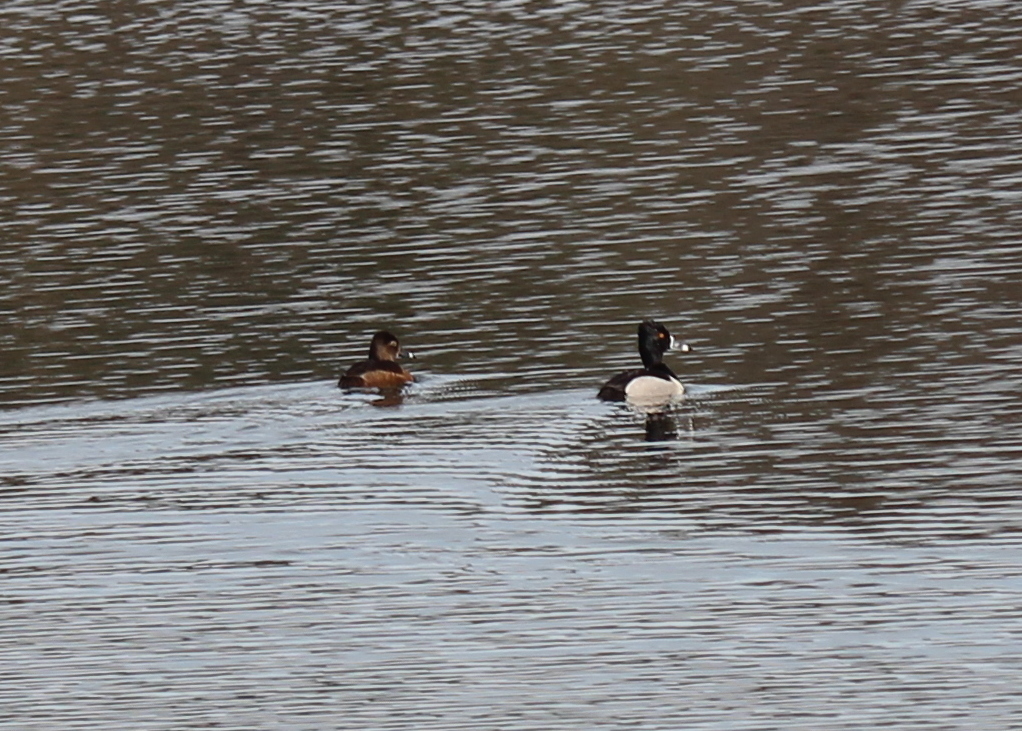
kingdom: Animalia
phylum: Chordata
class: Aves
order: Anseriformes
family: Anatidae
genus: Aythya
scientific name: Aythya collaris
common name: Ring-necked duck
